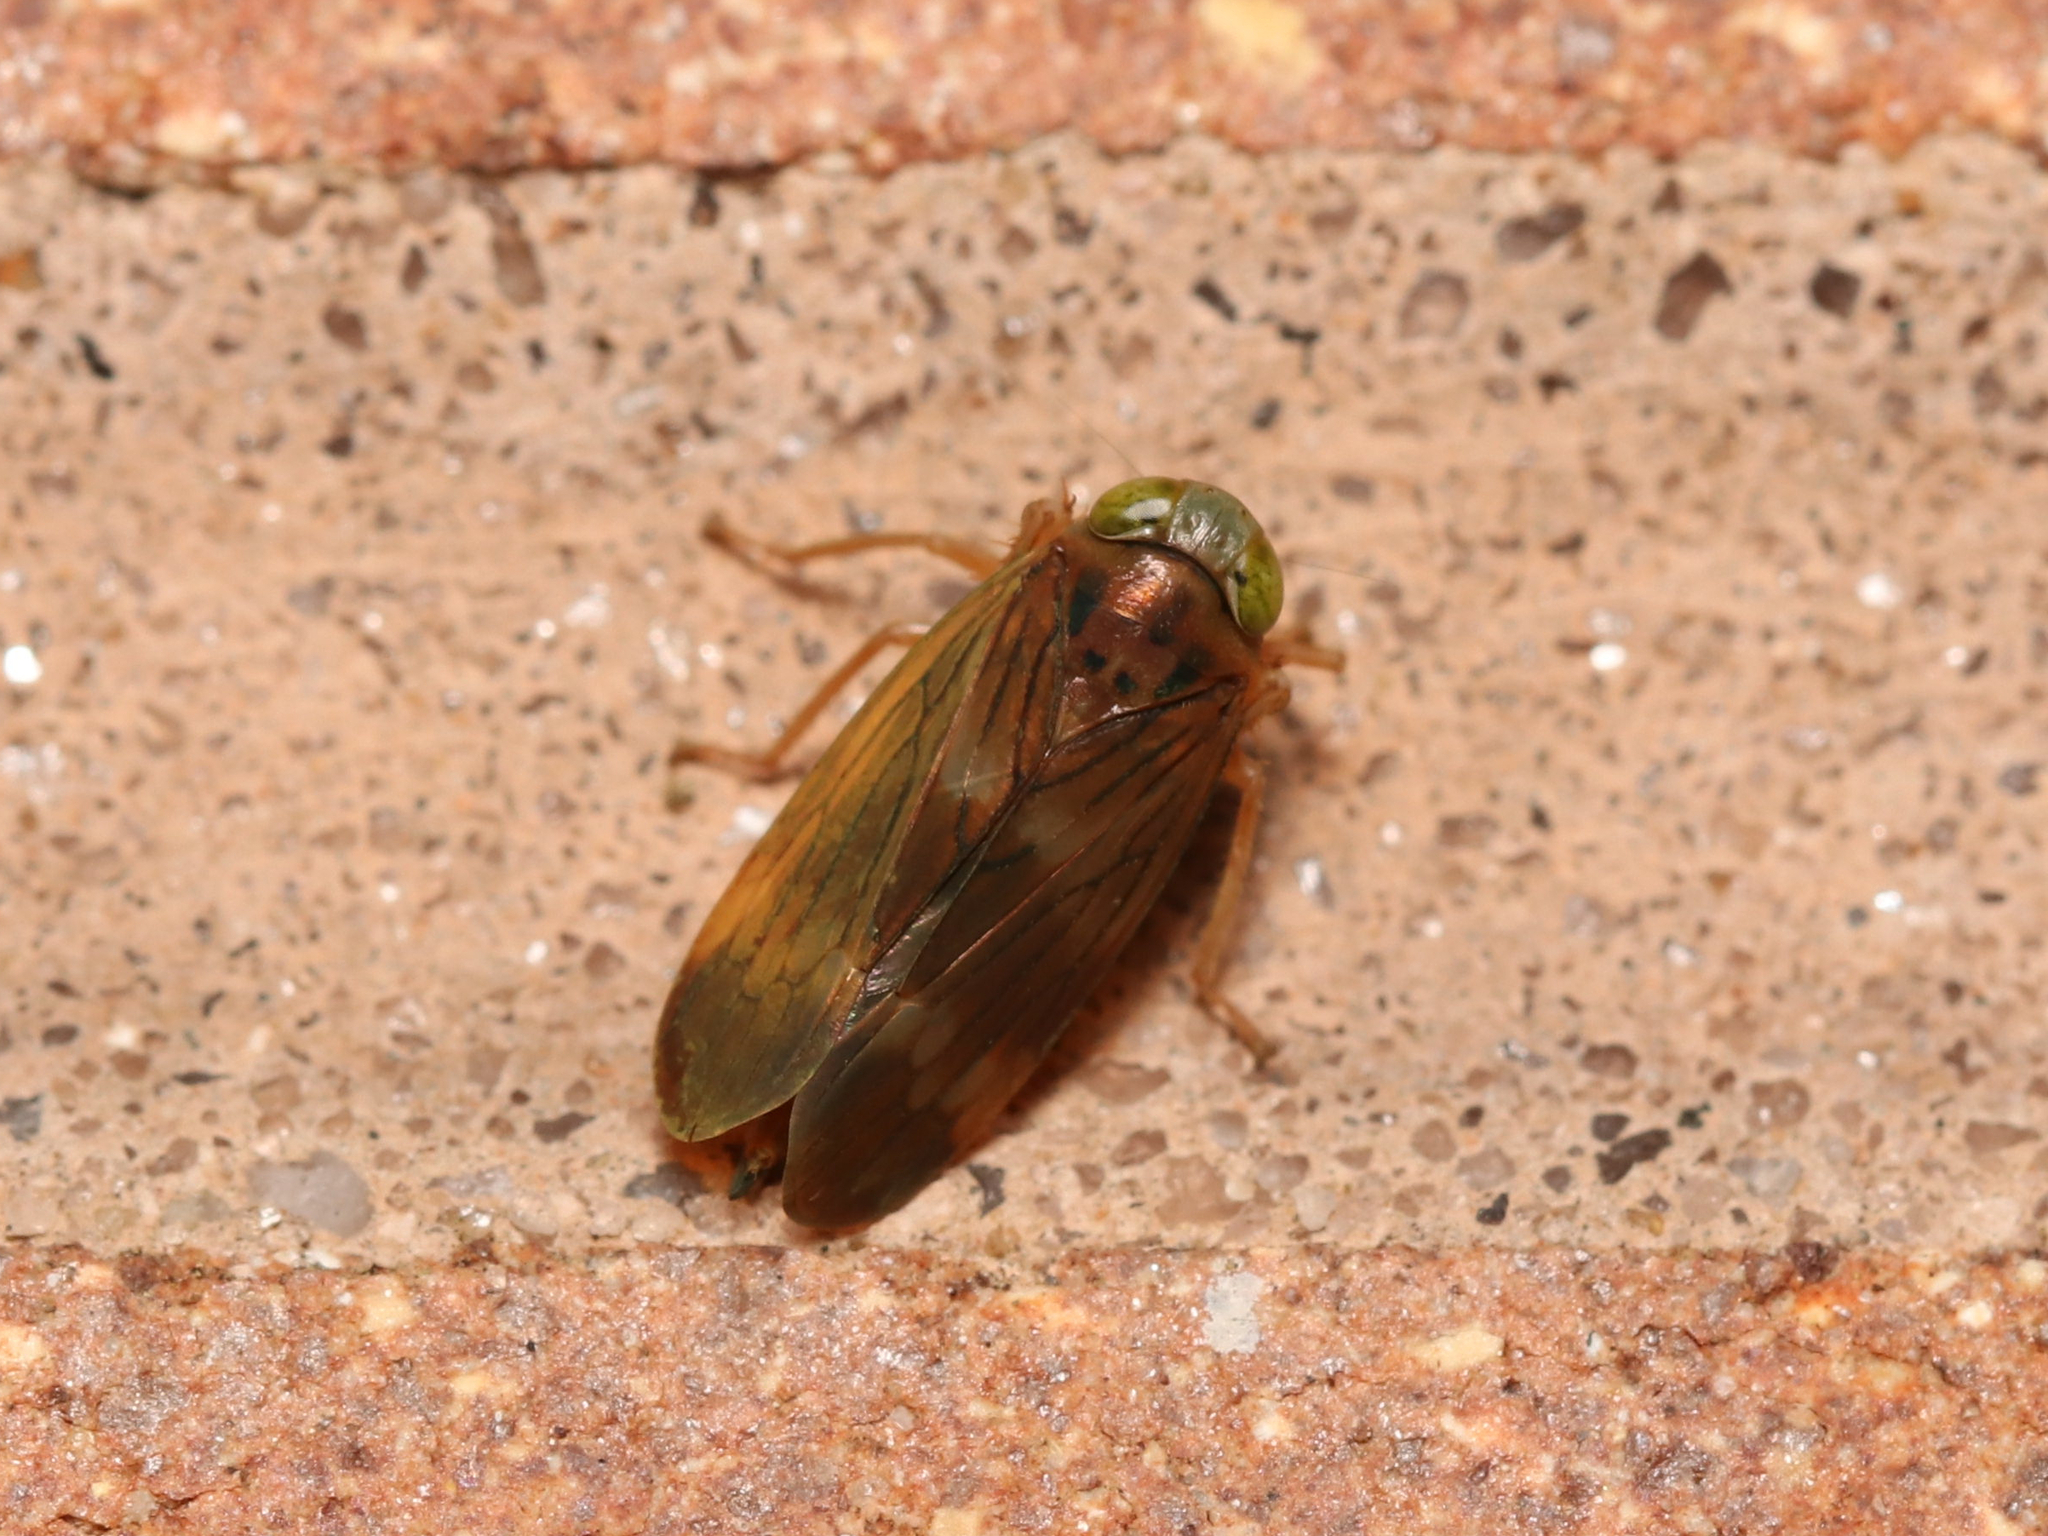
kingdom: Animalia
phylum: Arthropoda
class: Insecta
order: Hemiptera
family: Cicadellidae
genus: Jikradia
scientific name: Jikradia olitoria
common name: Coppery leafhopper
